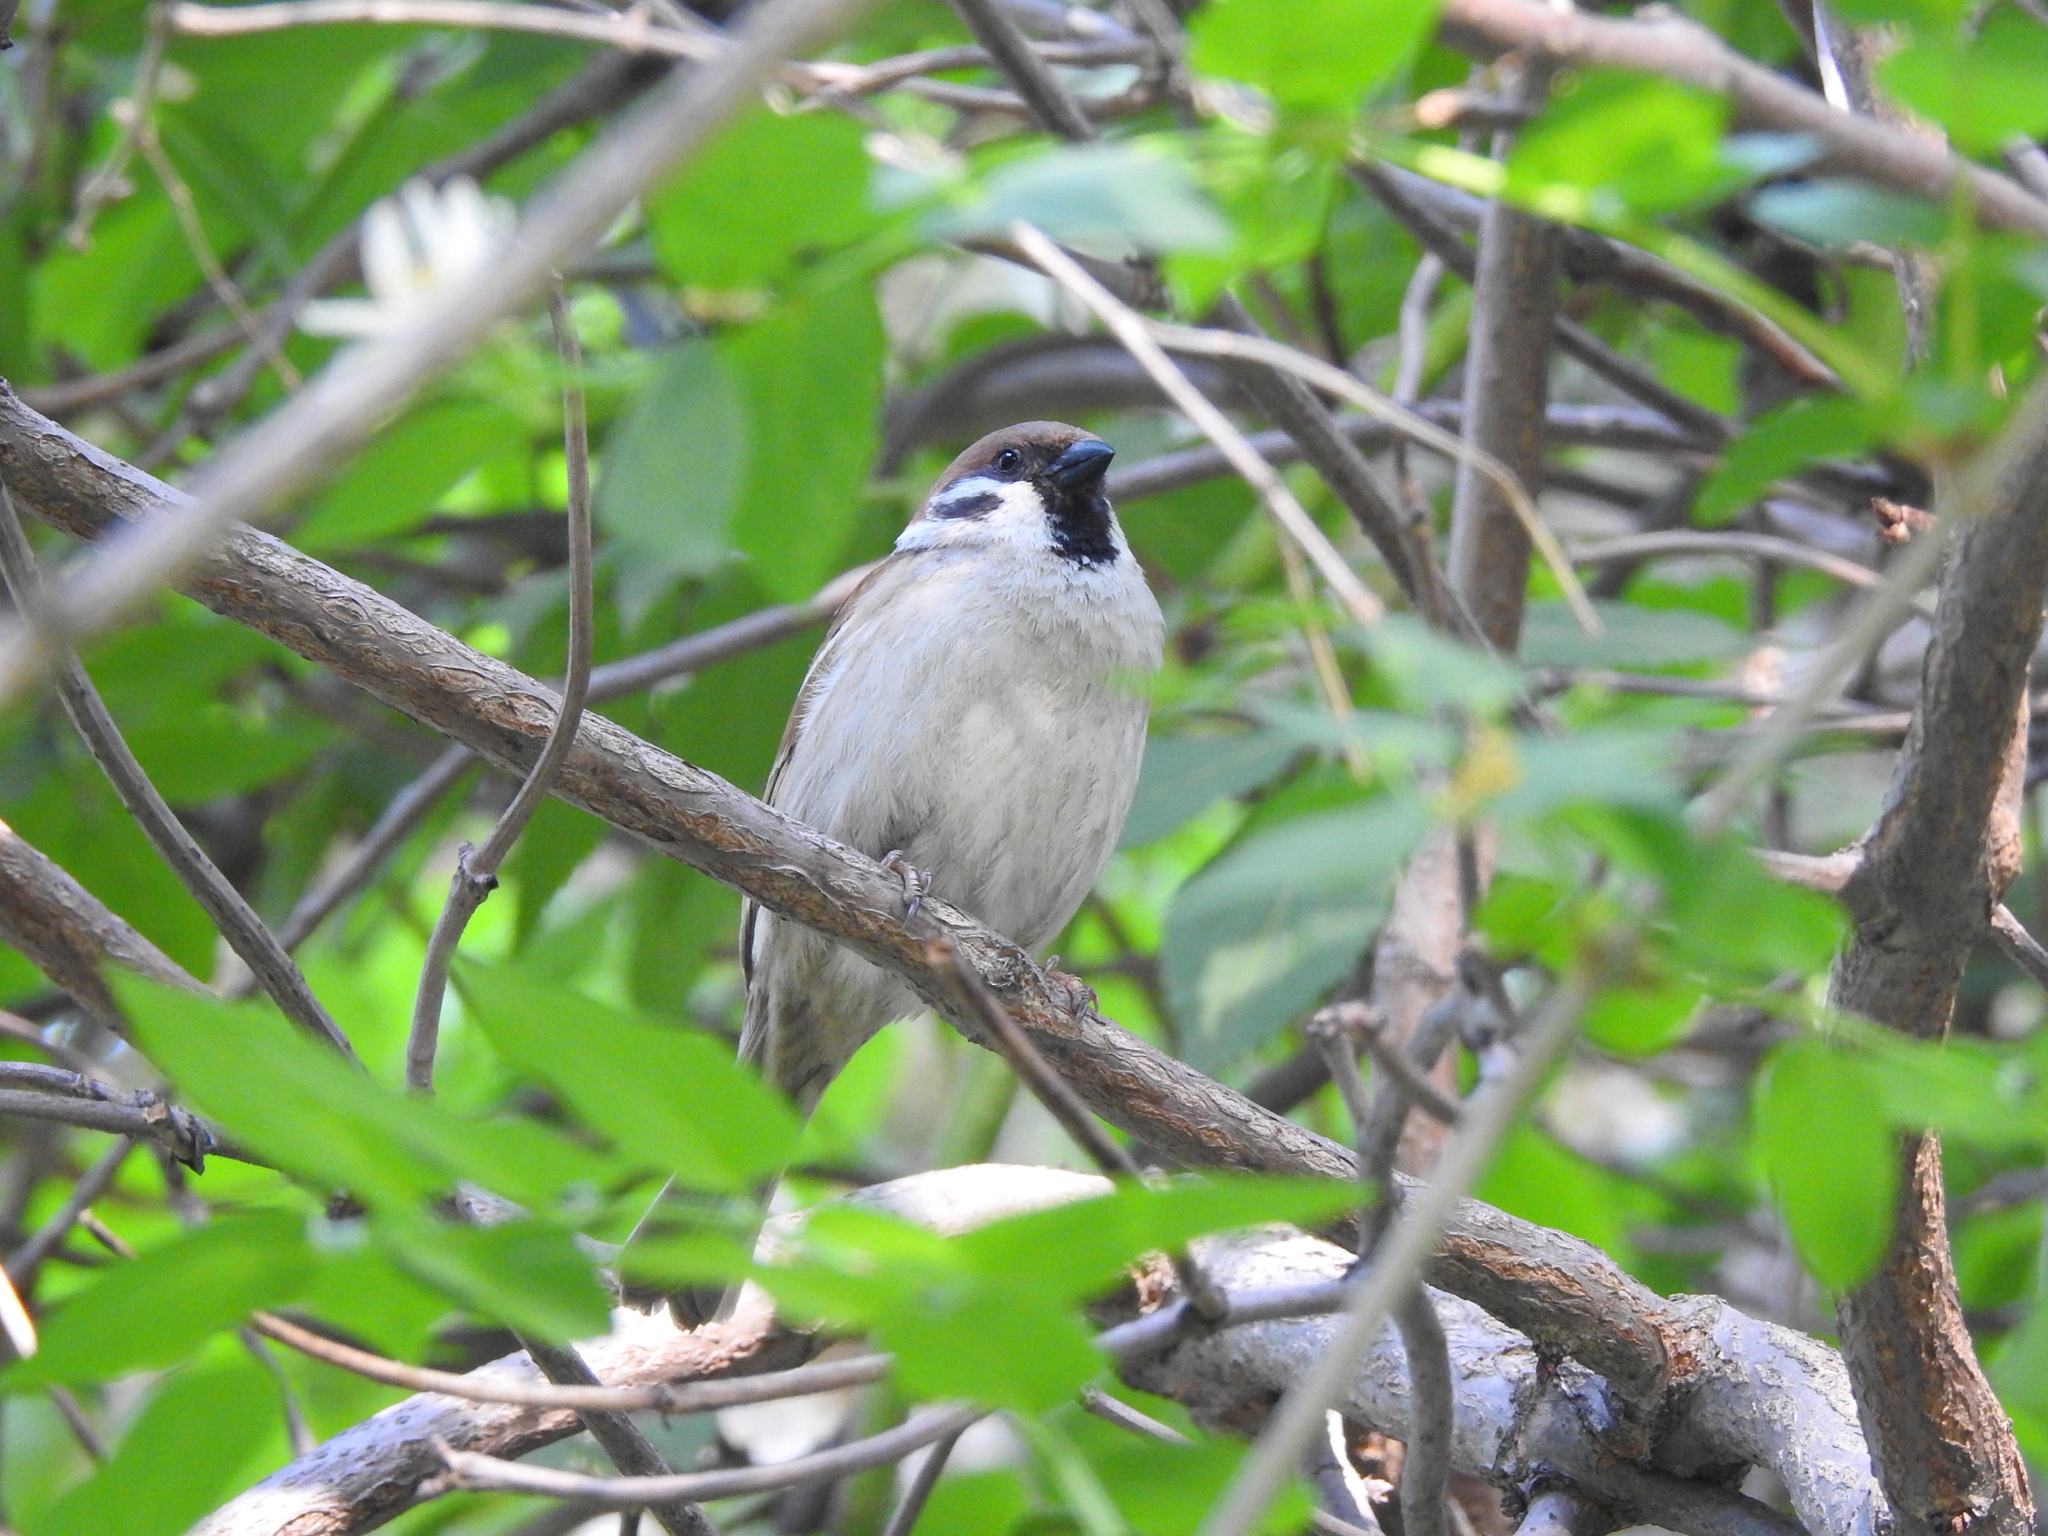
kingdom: Animalia
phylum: Chordata
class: Aves
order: Passeriformes
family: Passeridae
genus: Passer
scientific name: Passer montanus
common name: Eurasian tree sparrow
